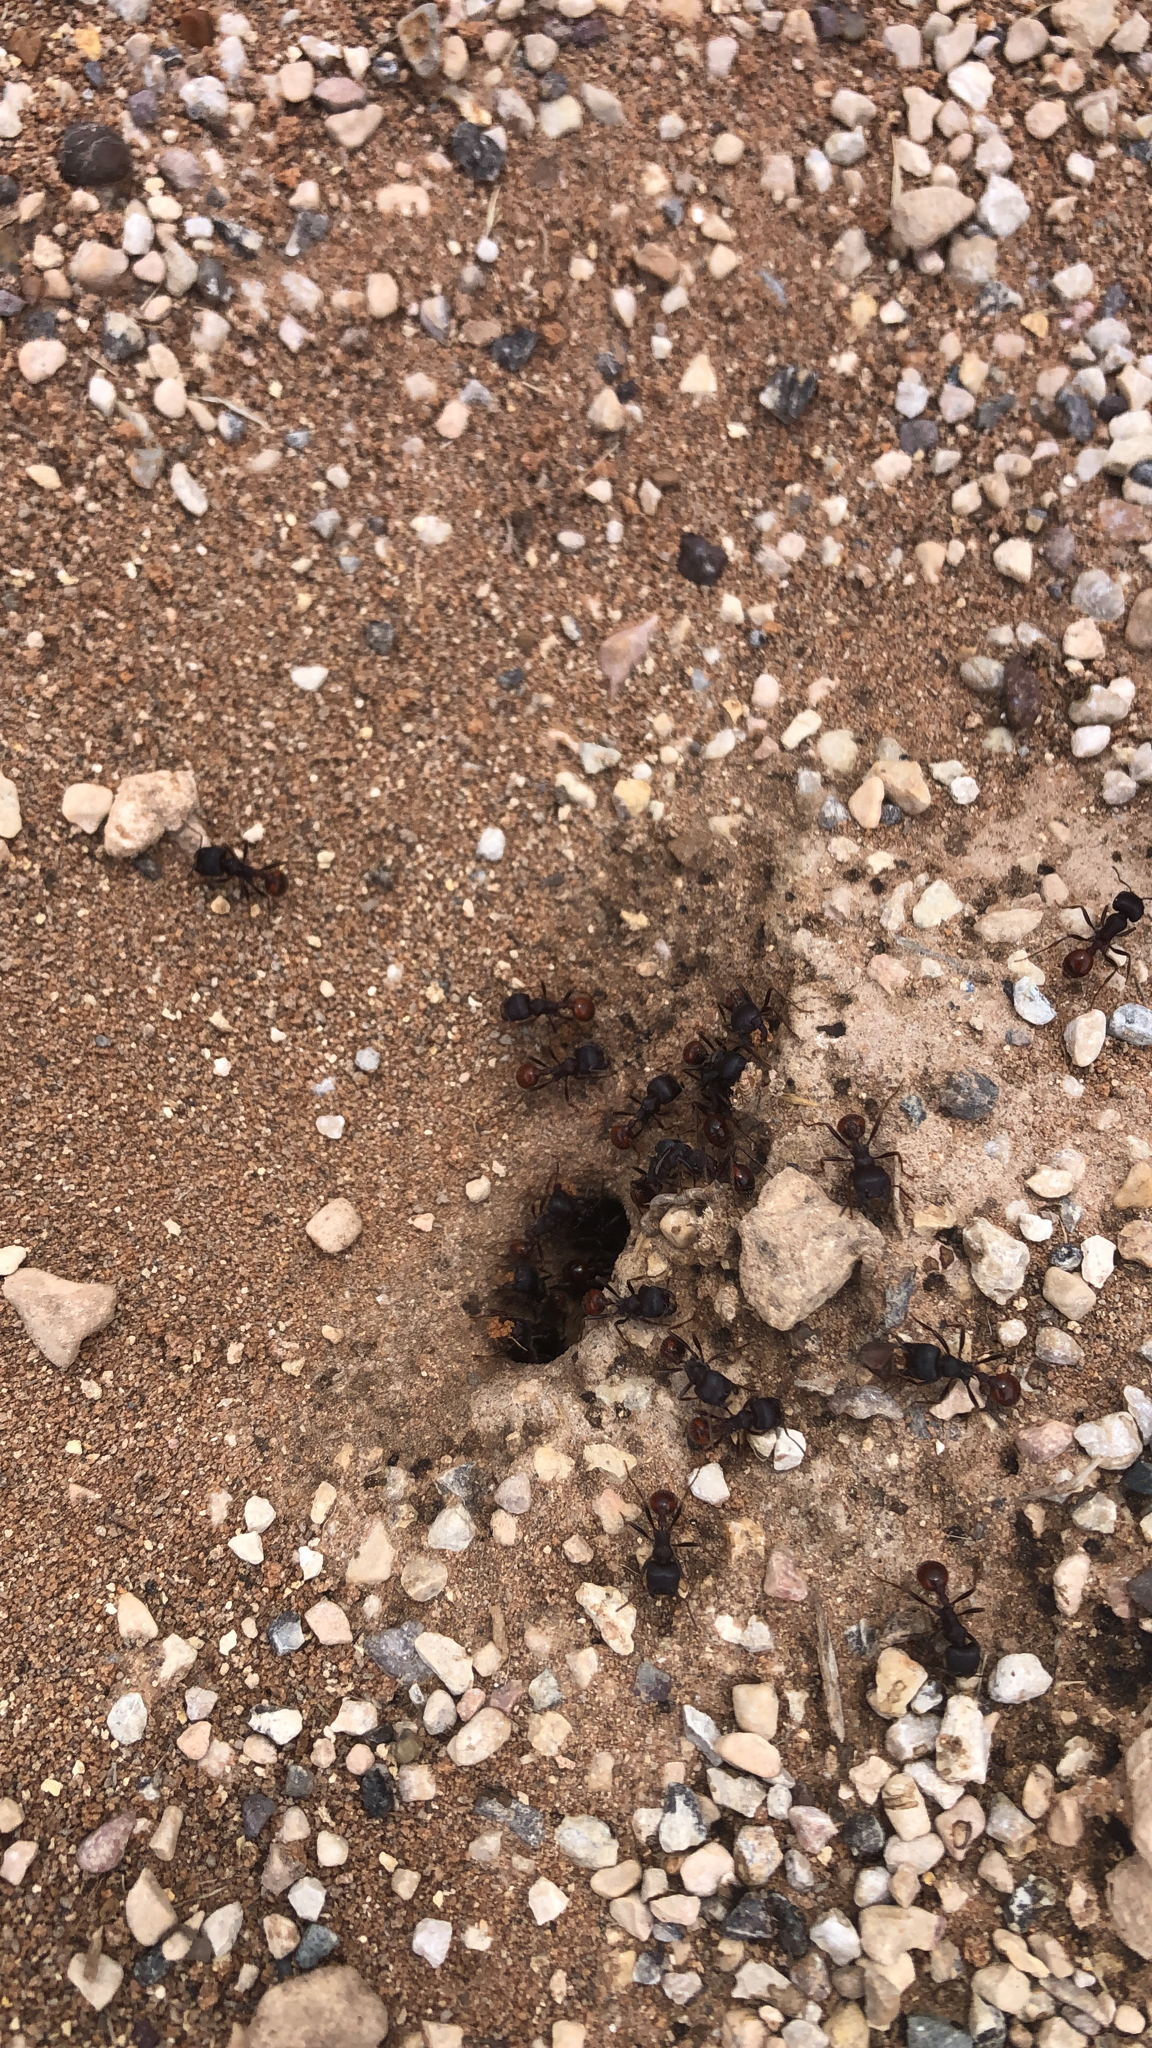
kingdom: Animalia
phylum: Arthropoda
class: Insecta
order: Hymenoptera
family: Formicidae
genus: Pogonomyrmex
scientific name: Pogonomyrmex rugosus
